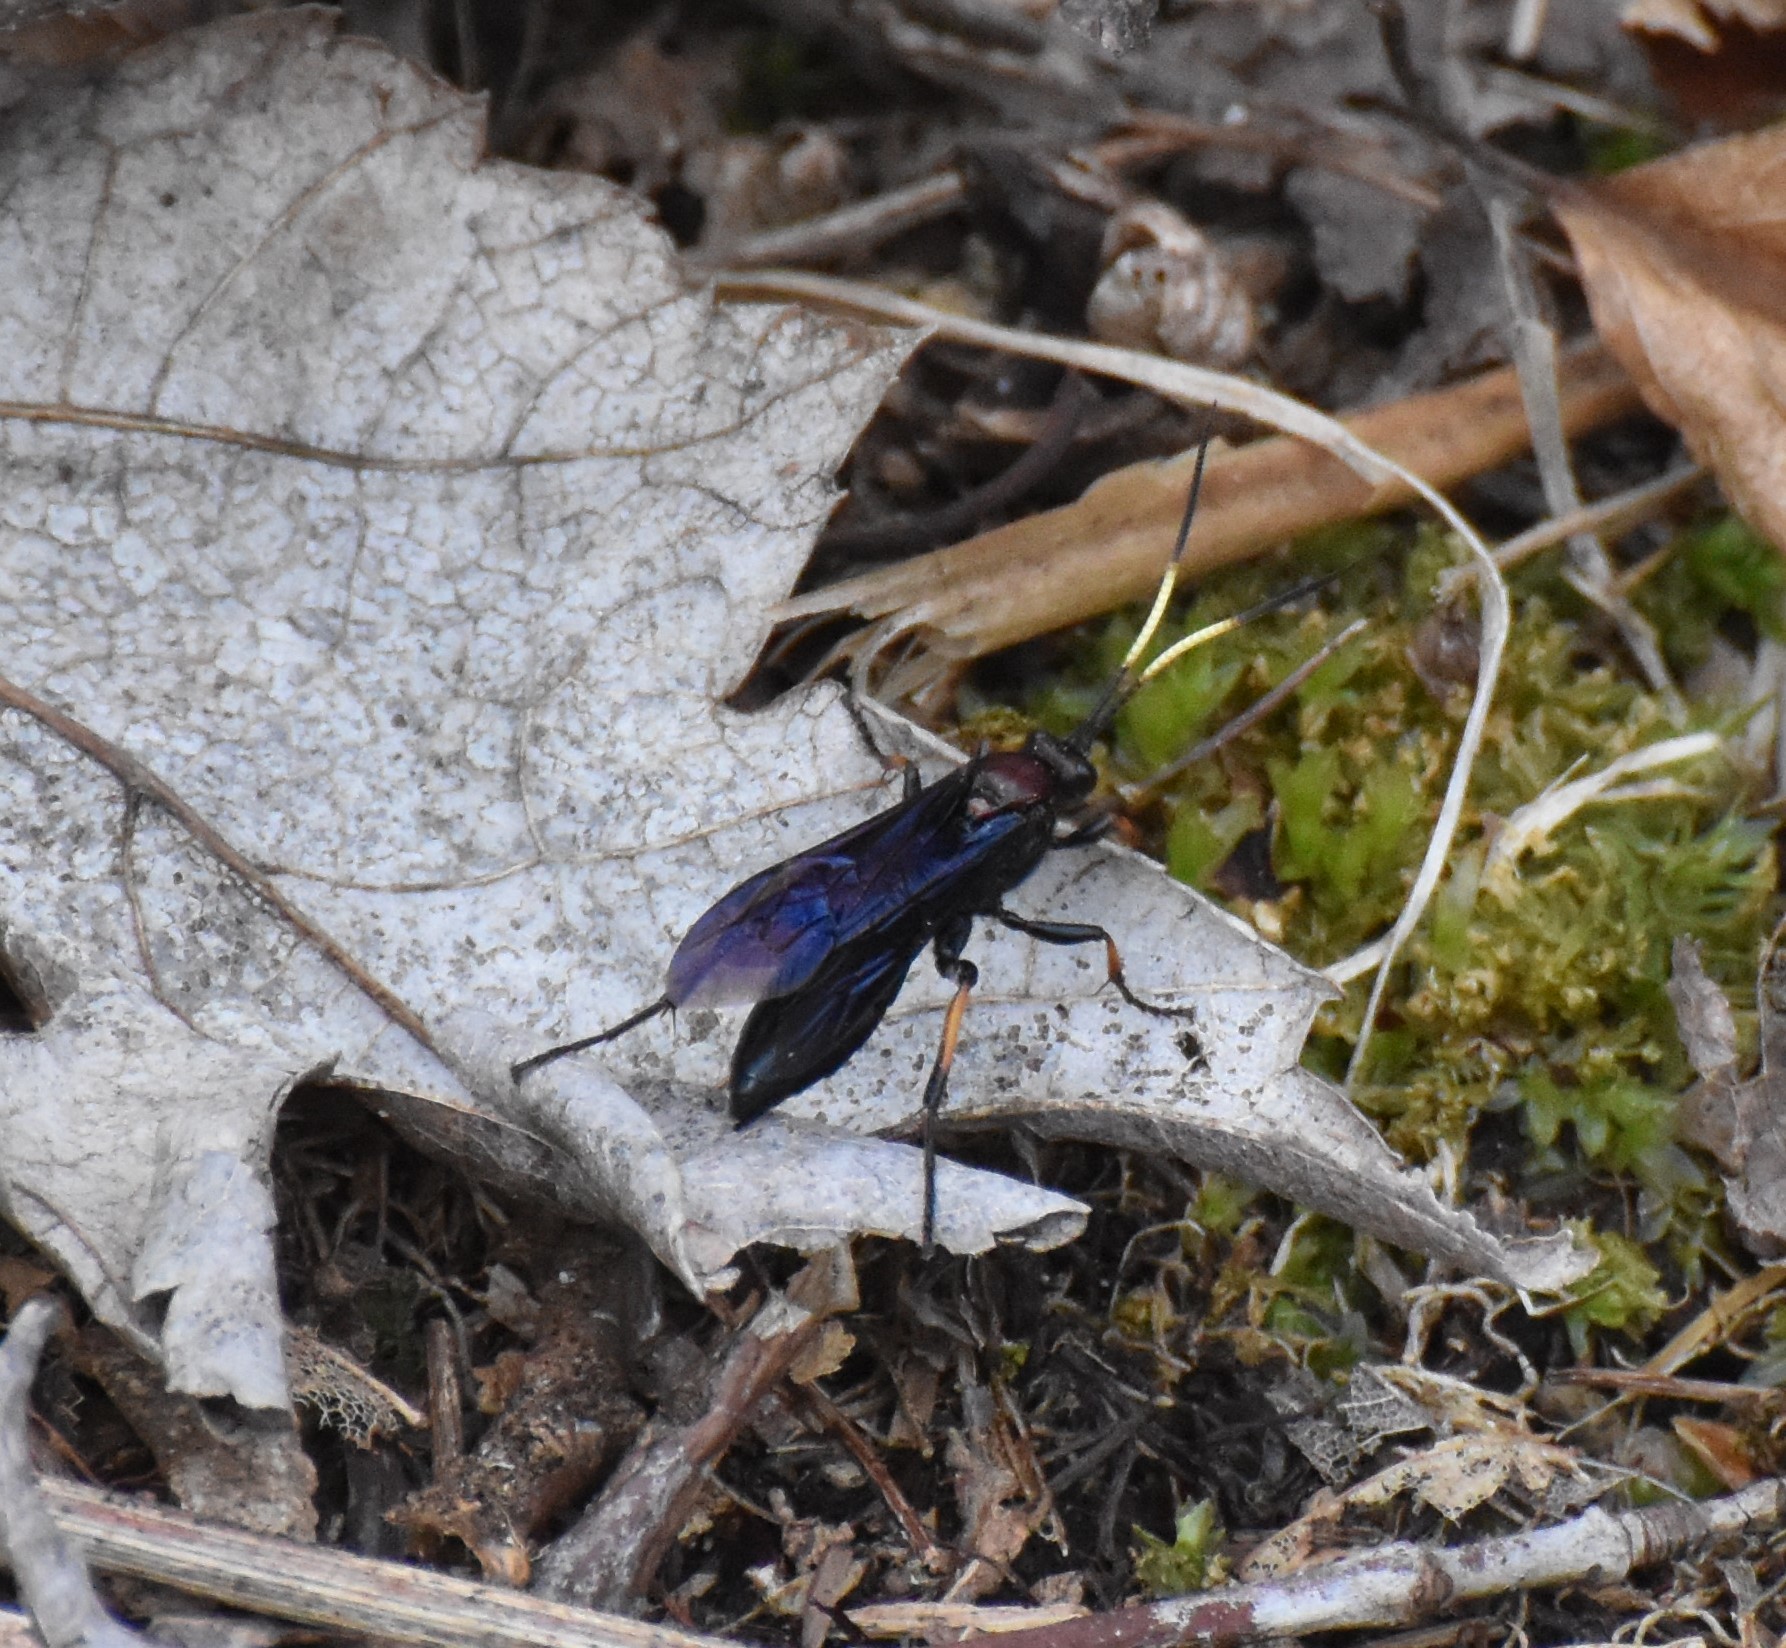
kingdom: Animalia
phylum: Arthropoda
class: Insecta
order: Hymenoptera
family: Ichneumonidae
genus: Ichneumon
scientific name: Ichneumon centrator
